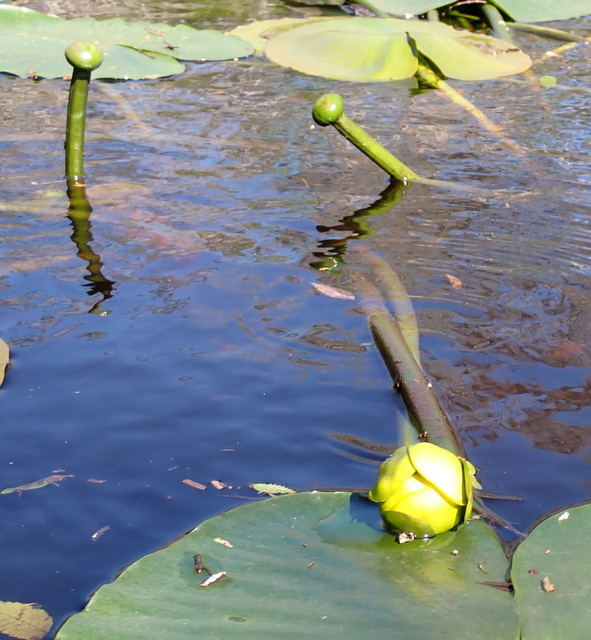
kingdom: Plantae
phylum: Tracheophyta
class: Magnoliopsida
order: Nymphaeales
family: Nymphaeaceae
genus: Nuphar
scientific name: Nuphar advena
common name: Spatter-dock
